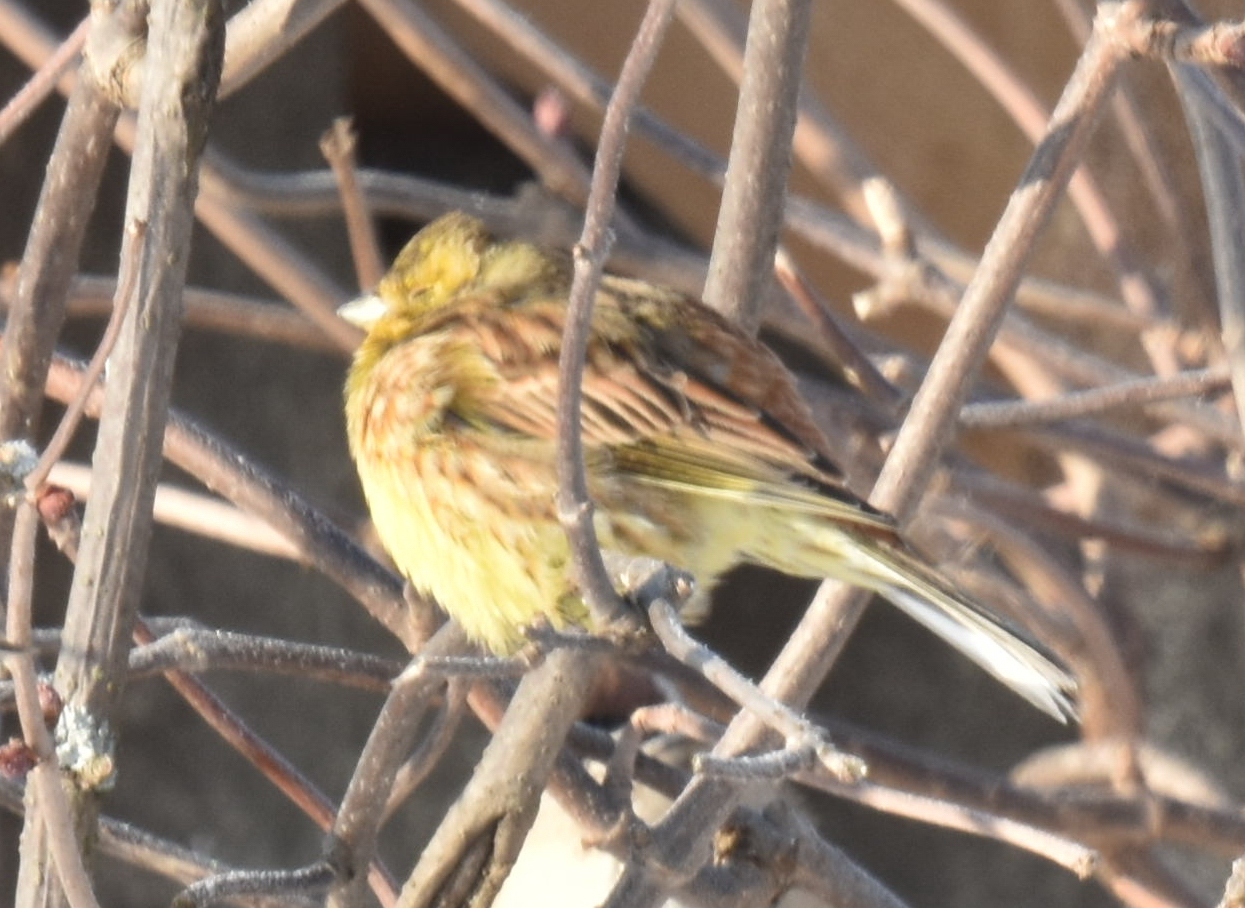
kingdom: Animalia
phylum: Chordata
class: Aves
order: Passeriformes
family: Emberizidae
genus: Emberiza
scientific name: Emberiza citrinella
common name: Yellowhammer
